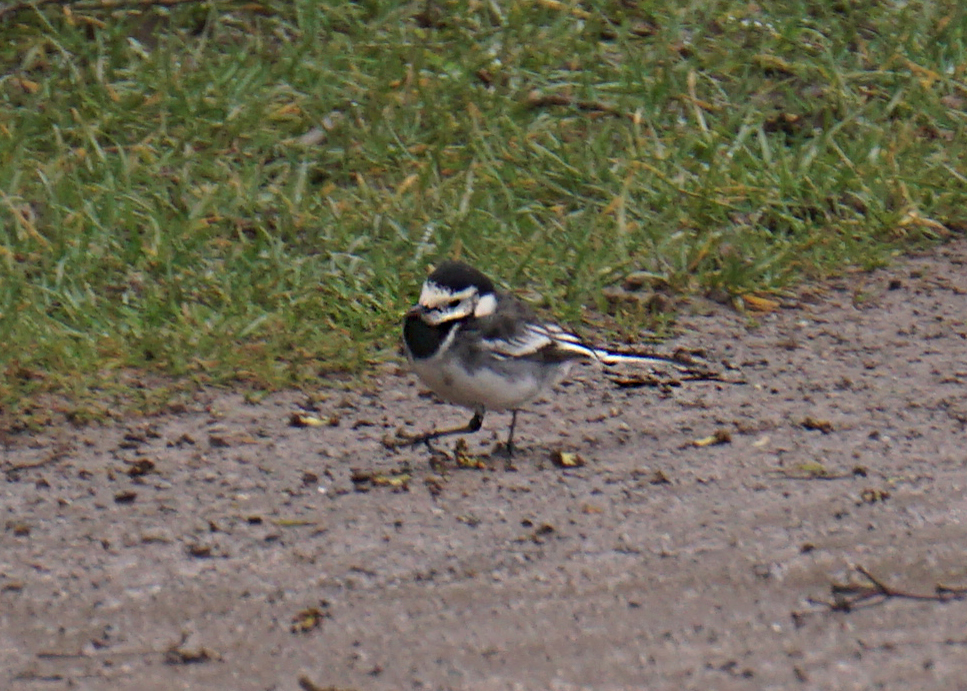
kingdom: Animalia
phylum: Chordata
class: Aves
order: Passeriformes
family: Motacillidae
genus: Motacilla
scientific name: Motacilla alba
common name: White wagtail
